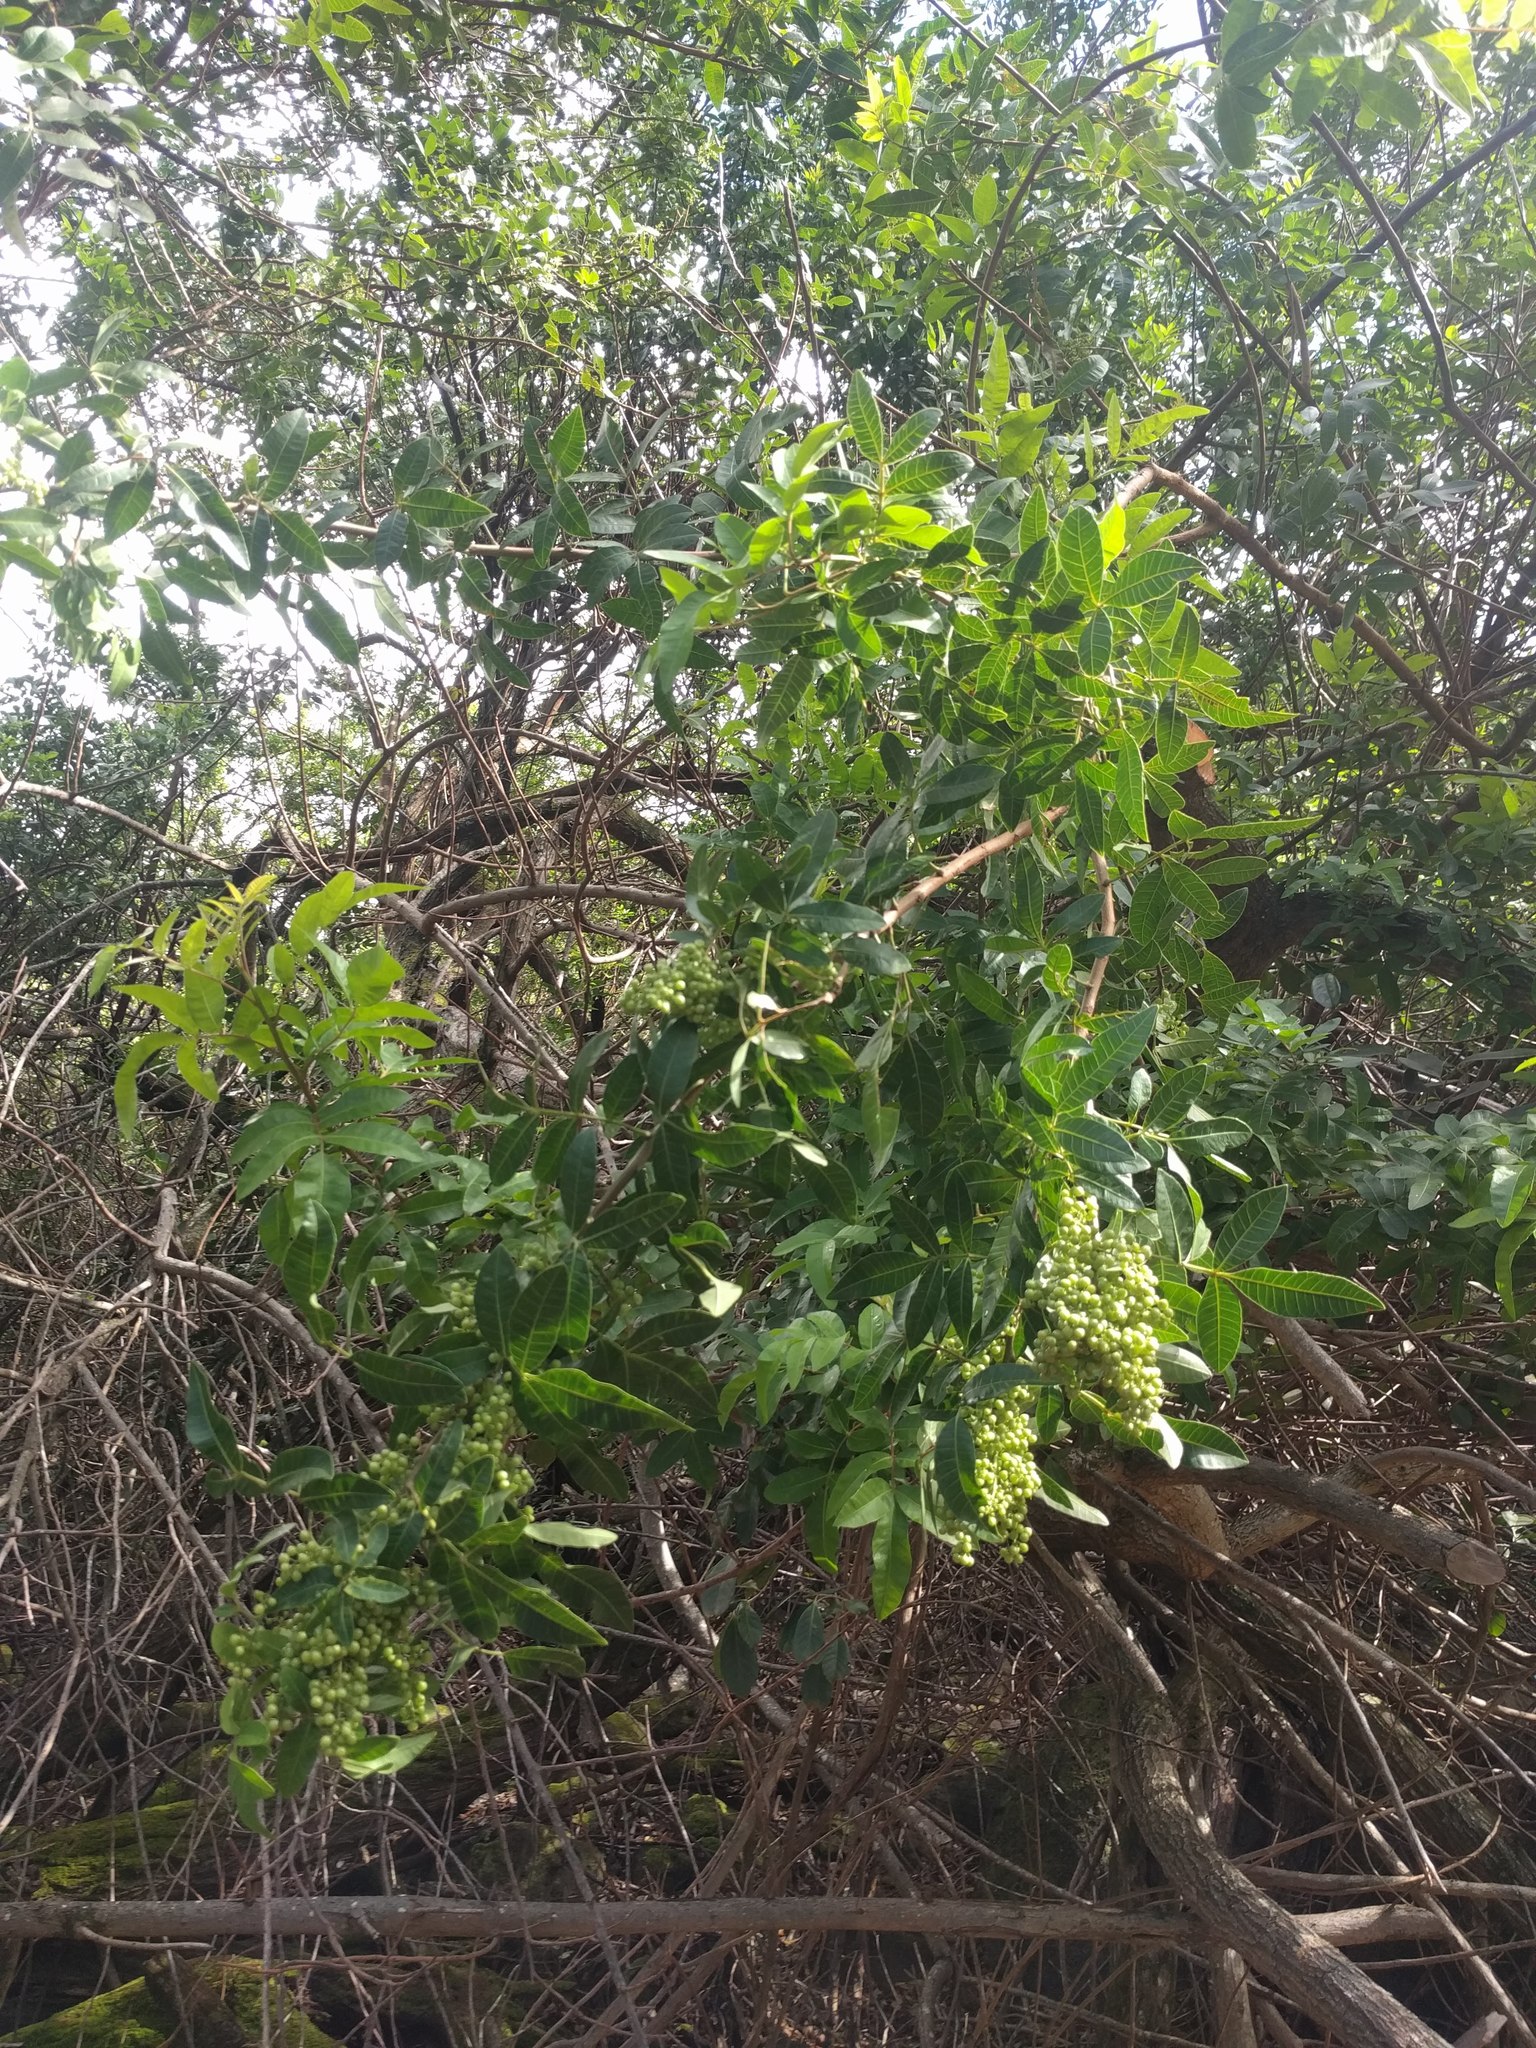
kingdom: Plantae
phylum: Tracheophyta
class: Magnoliopsida
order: Sapindales
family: Anacardiaceae
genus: Schinus
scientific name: Schinus terebinthifolia
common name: Brazilian peppertree
